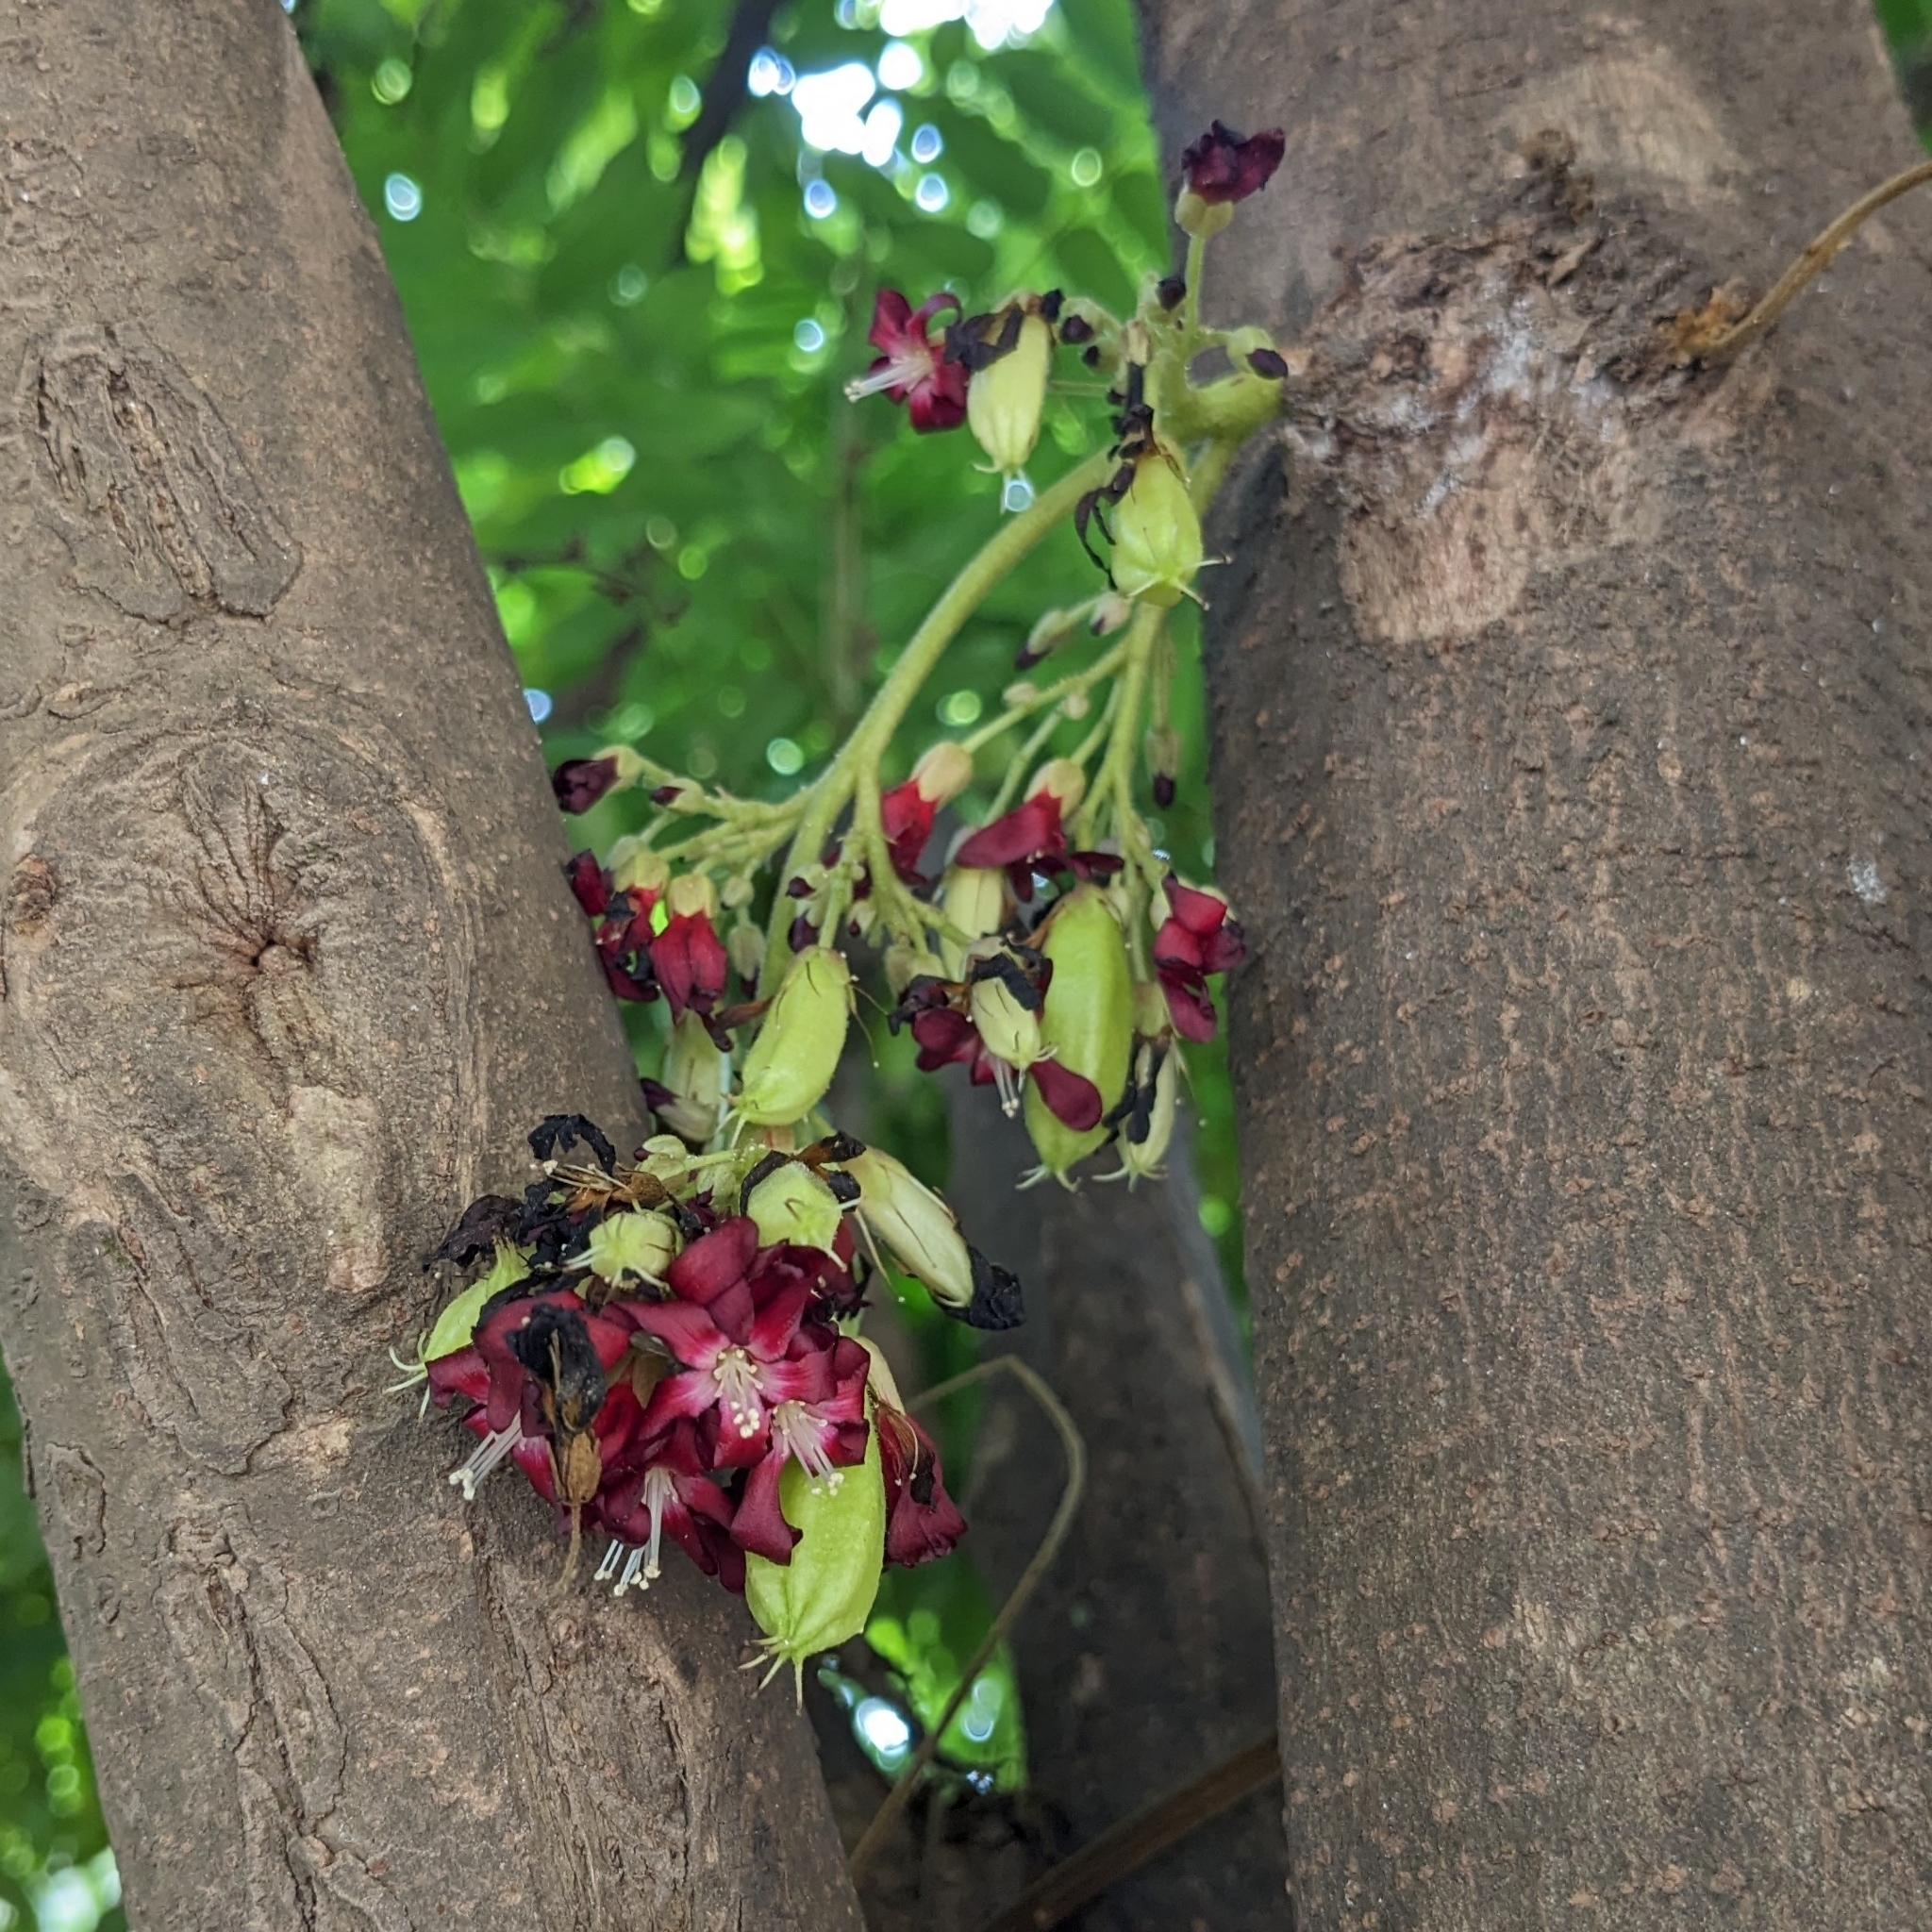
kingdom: Plantae
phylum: Tracheophyta
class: Magnoliopsida
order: Oxalidales
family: Oxalidaceae
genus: Averrhoa
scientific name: Averrhoa bilimbi
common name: Bilimbi
